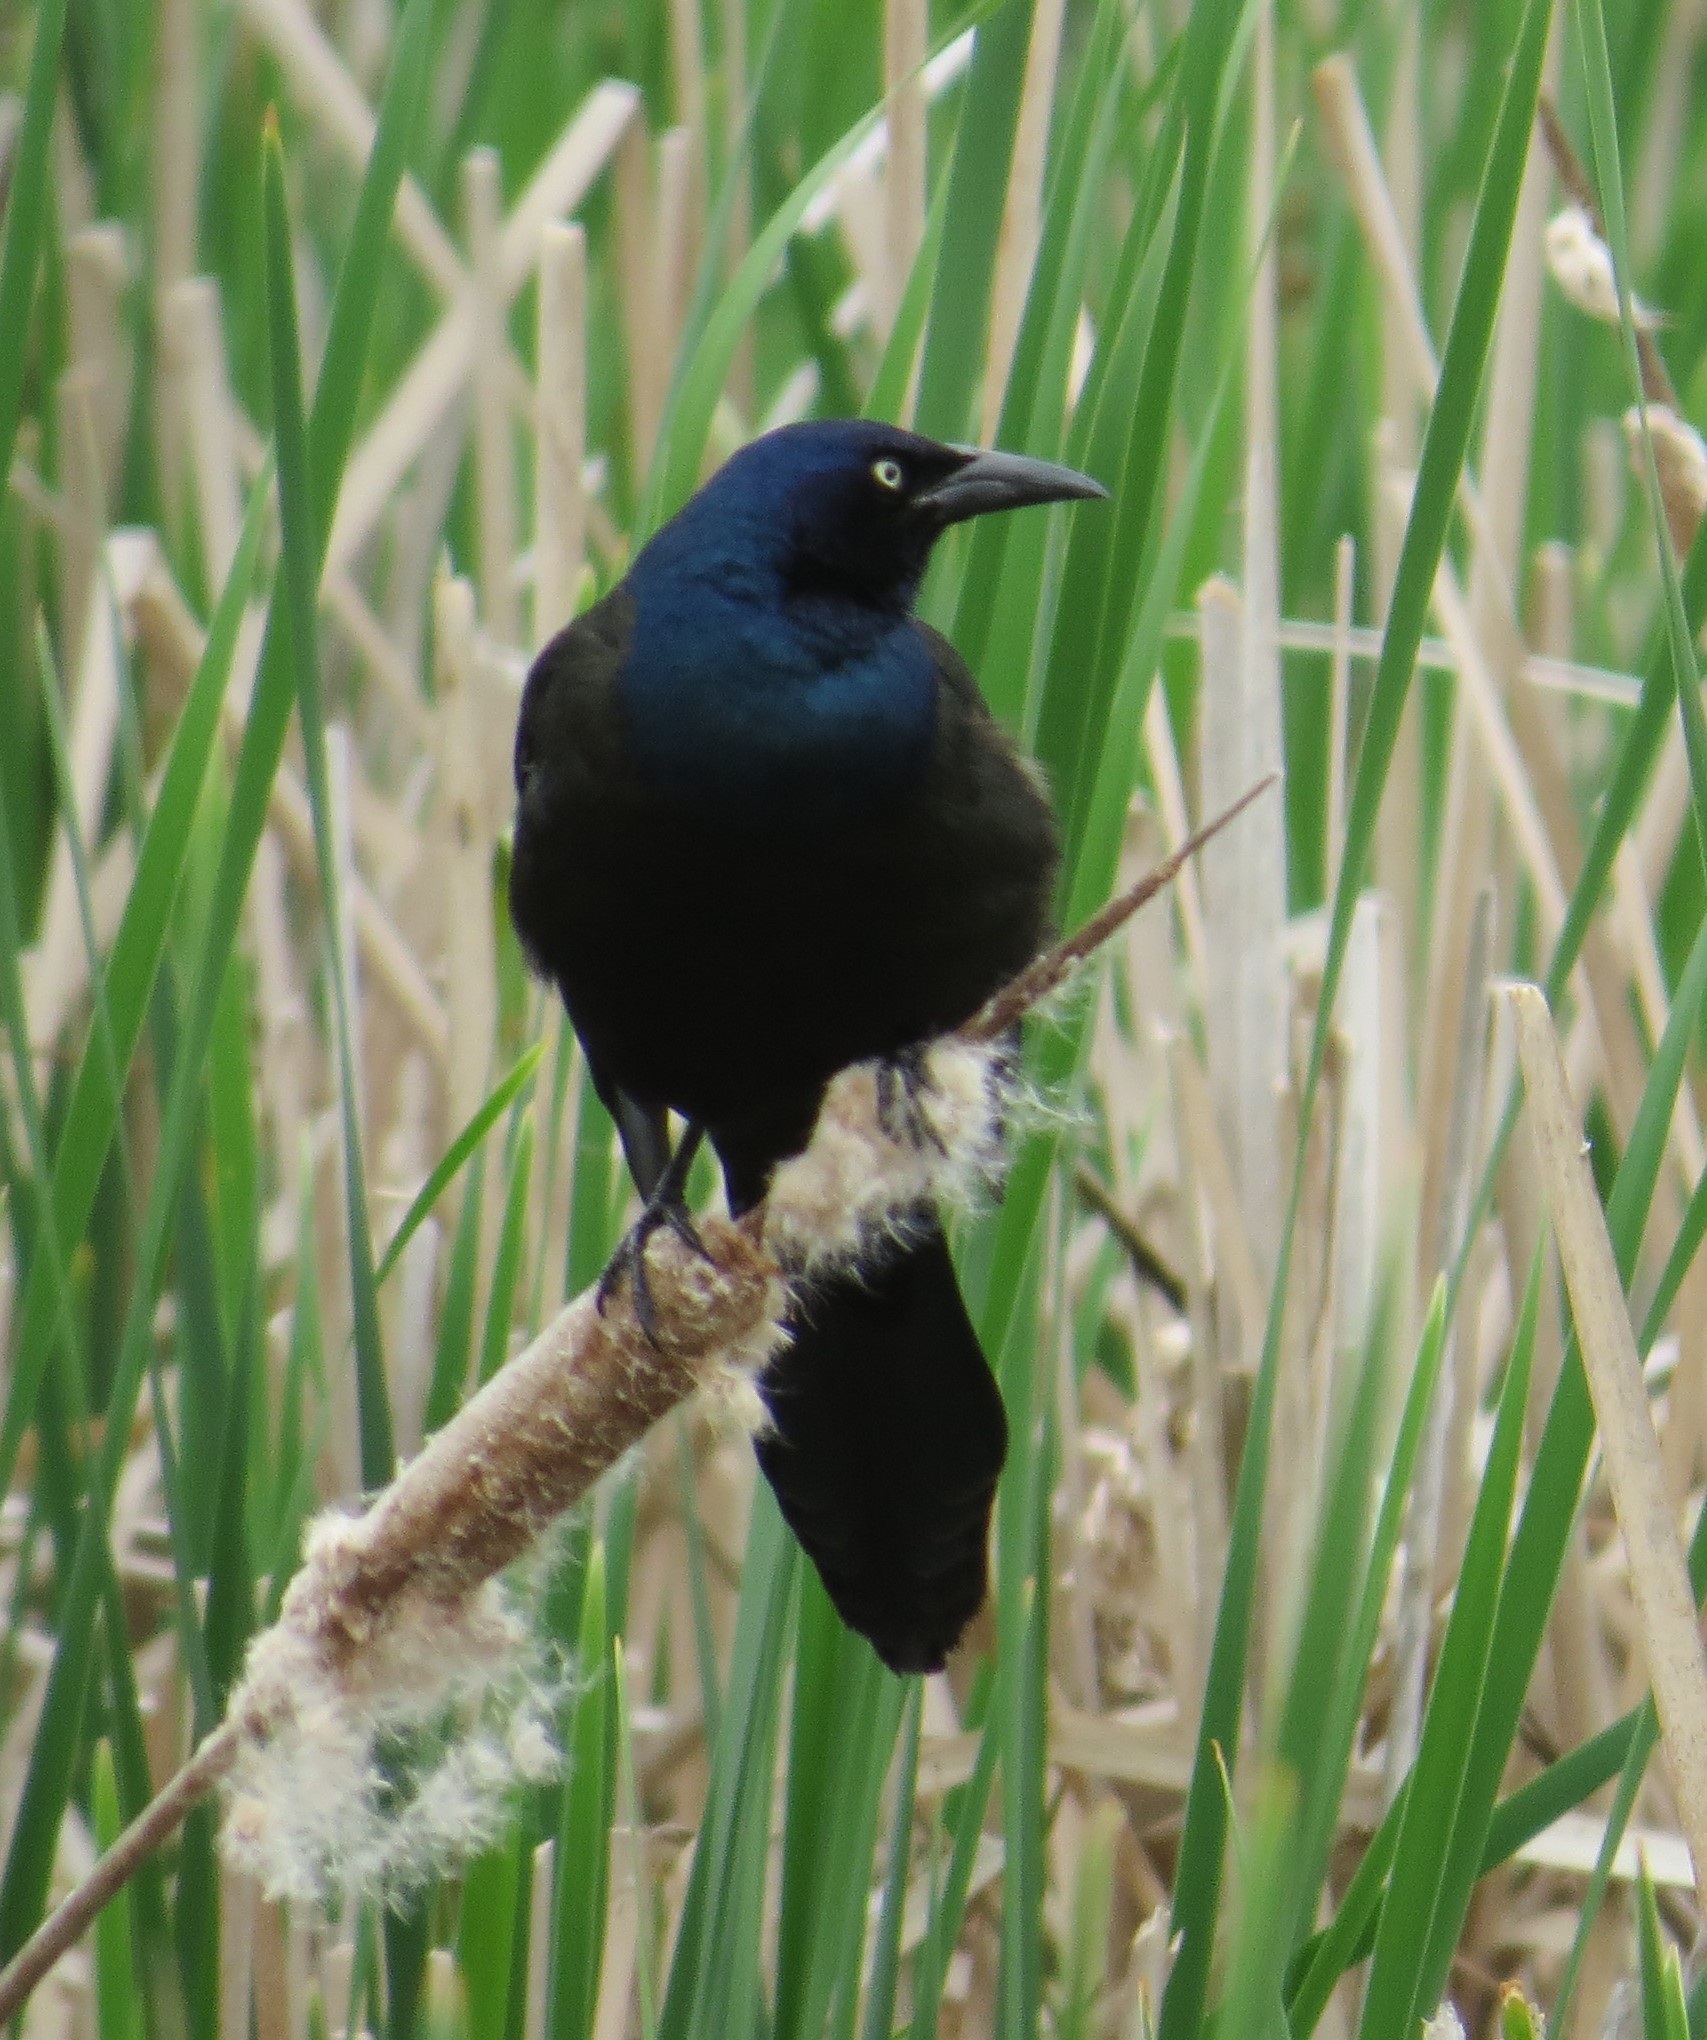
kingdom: Animalia
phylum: Chordata
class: Aves
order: Passeriformes
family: Icteridae
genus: Quiscalus
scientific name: Quiscalus quiscula
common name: Common grackle
